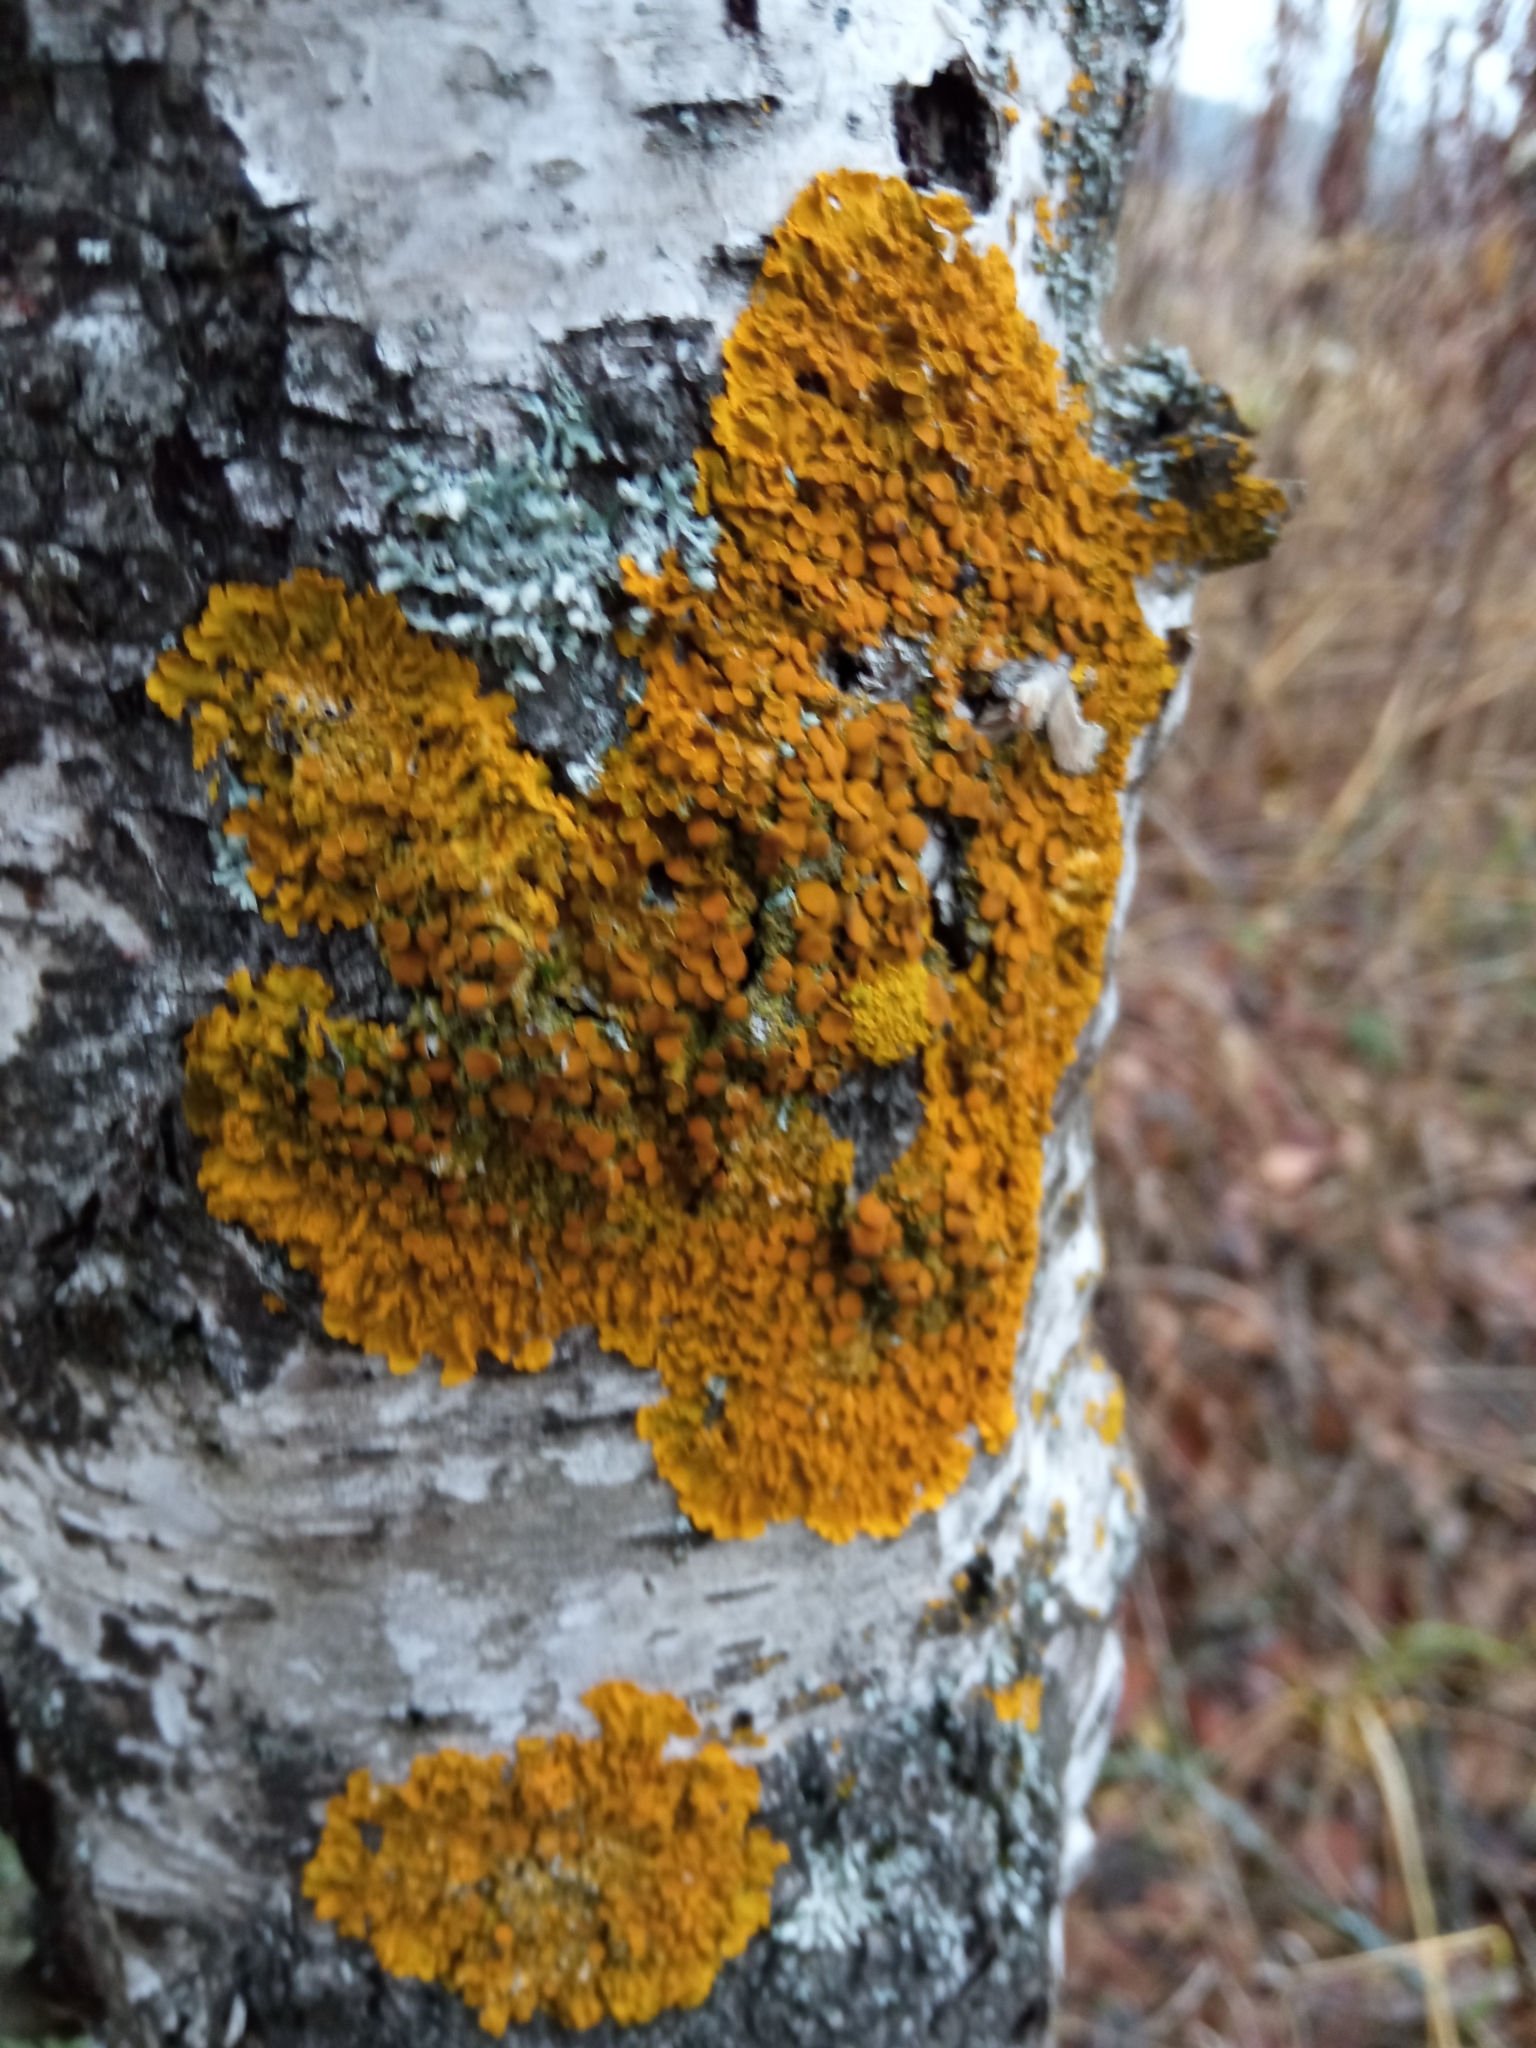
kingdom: Fungi
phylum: Ascomycota
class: Lecanoromycetes
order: Teloschistales
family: Teloschistaceae
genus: Xanthoria
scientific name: Xanthoria parietina
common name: Common orange lichen
